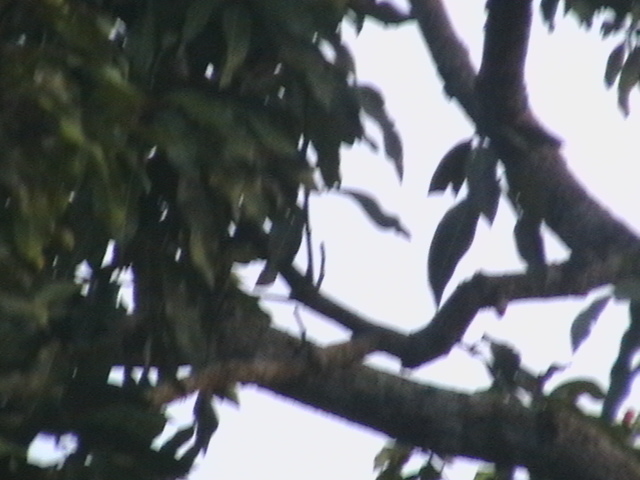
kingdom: Plantae
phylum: Tracheophyta
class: Magnoliopsida
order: Sapindales
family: Anacardiaceae
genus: Mangifera
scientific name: Mangifera indica
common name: Mango
